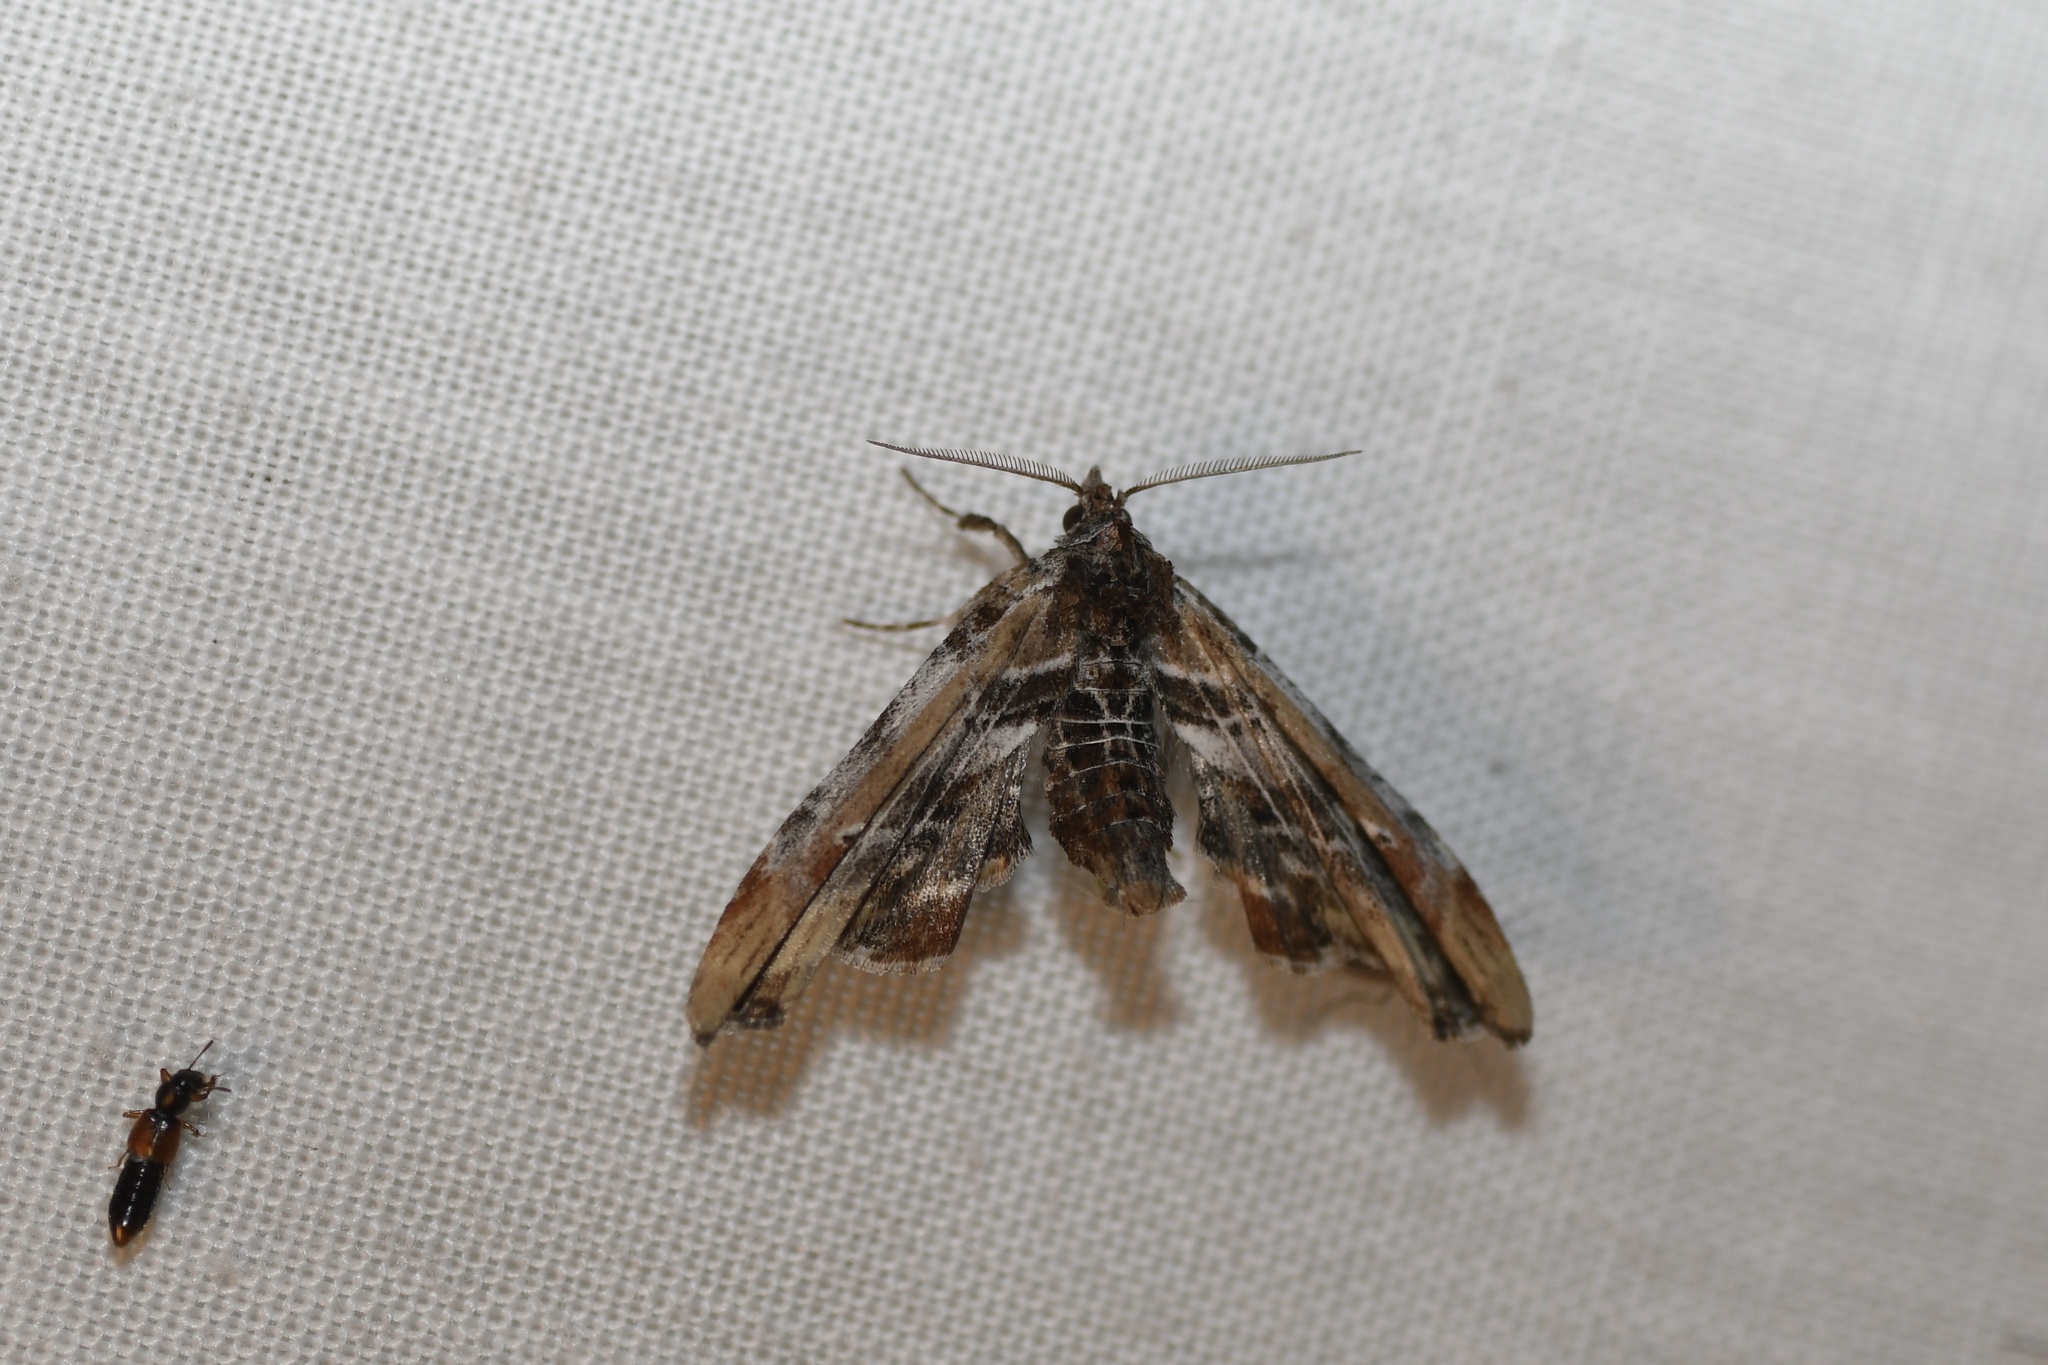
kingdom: Animalia
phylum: Arthropoda
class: Insecta
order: Lepidoptera
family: Euteliidae
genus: Marathyssa
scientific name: Marathyssa basalis
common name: Light marathyssa moth
